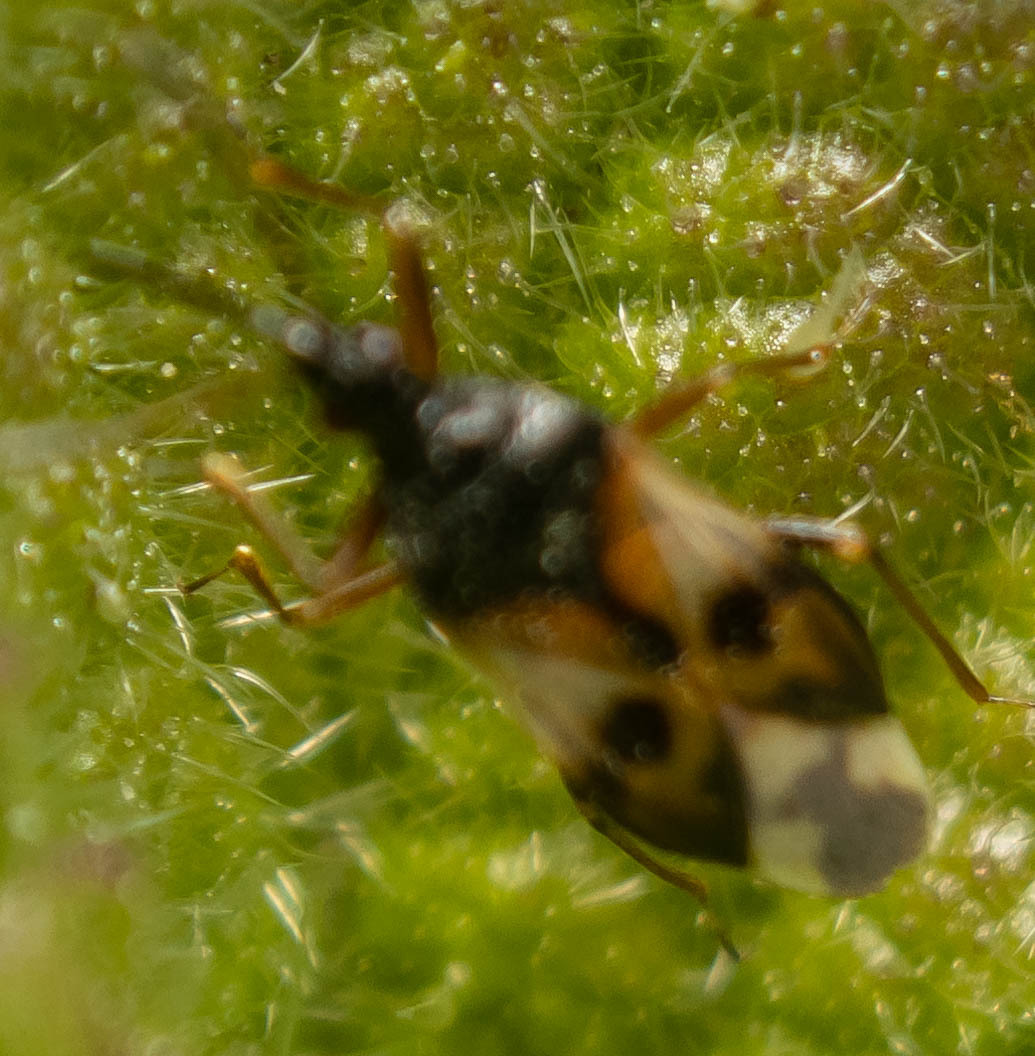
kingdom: Animalia
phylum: Arthropoda
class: Insecta
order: Hemiptera
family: Anthocoridae
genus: Anthocoris
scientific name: Anthocoris nemorum
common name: Minute pirate bug
